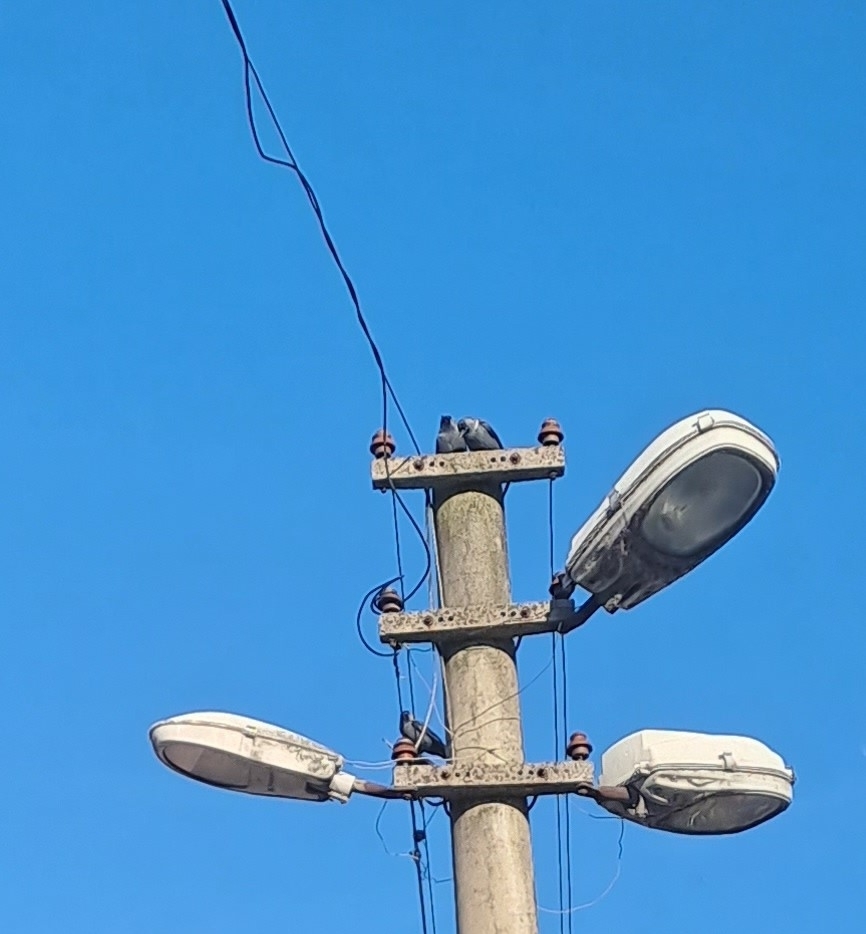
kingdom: Animalia
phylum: Chordata
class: Aves
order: Passeriformes
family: Corvidae
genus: Coloeus
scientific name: Coloeus monedula
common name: Western jackdaw
